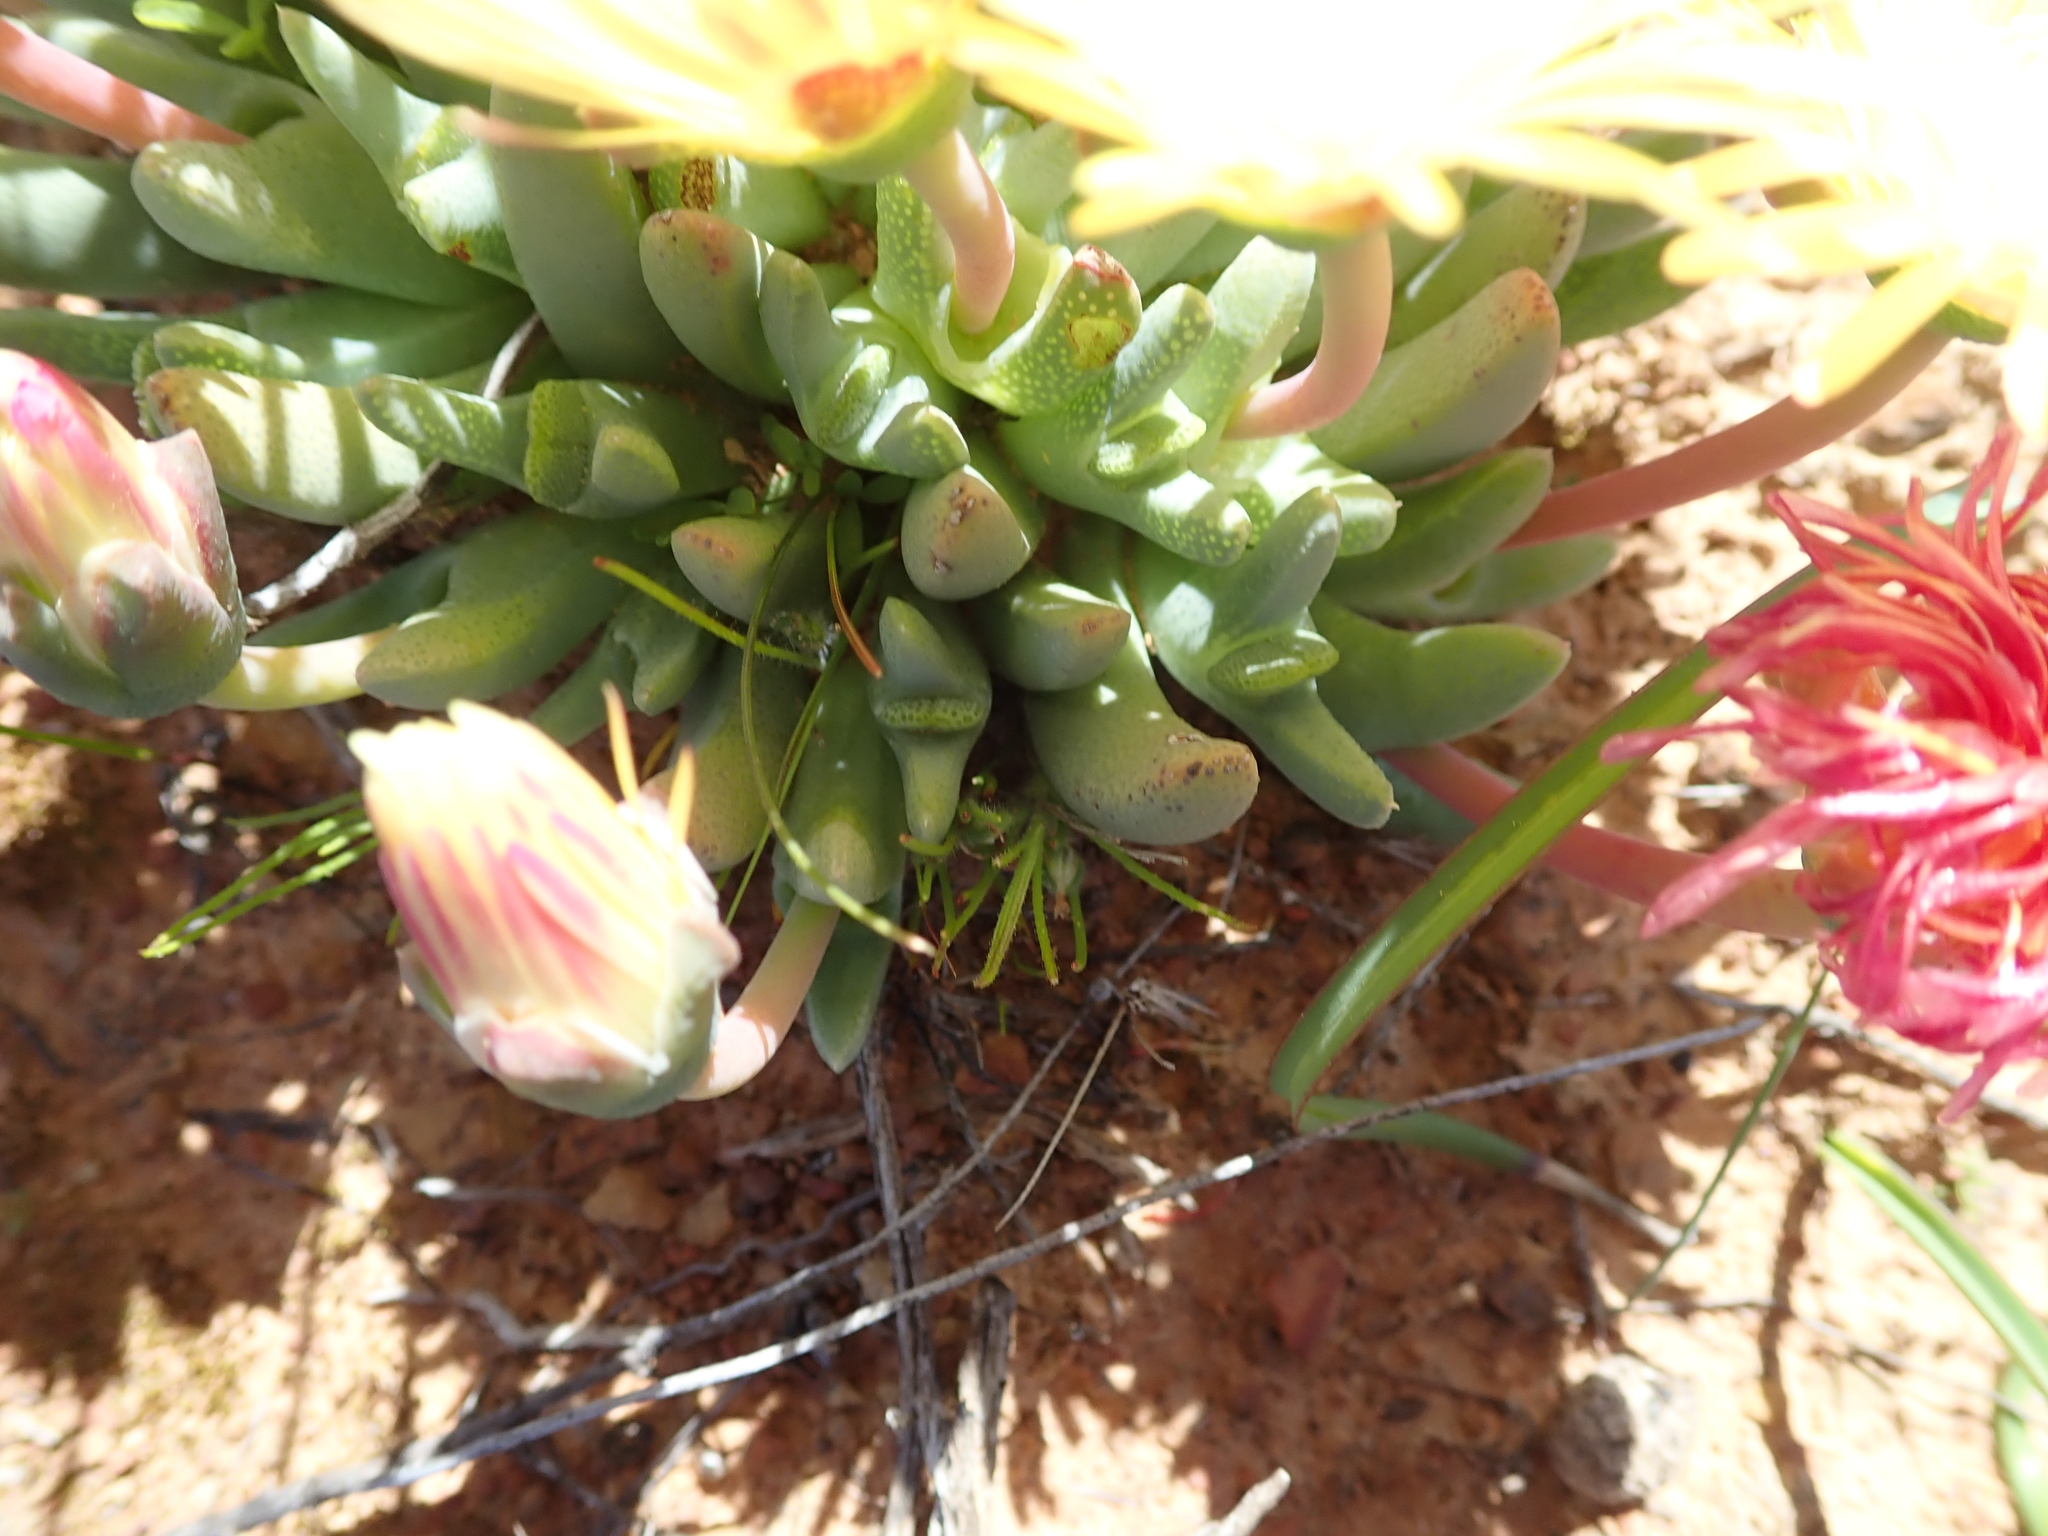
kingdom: Plantae
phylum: Tracheophyta
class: Magnoliopsida
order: Caryophyllales
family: Aizoaceae
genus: Cheiridopsis
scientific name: Cheiridopsis namaquensis
